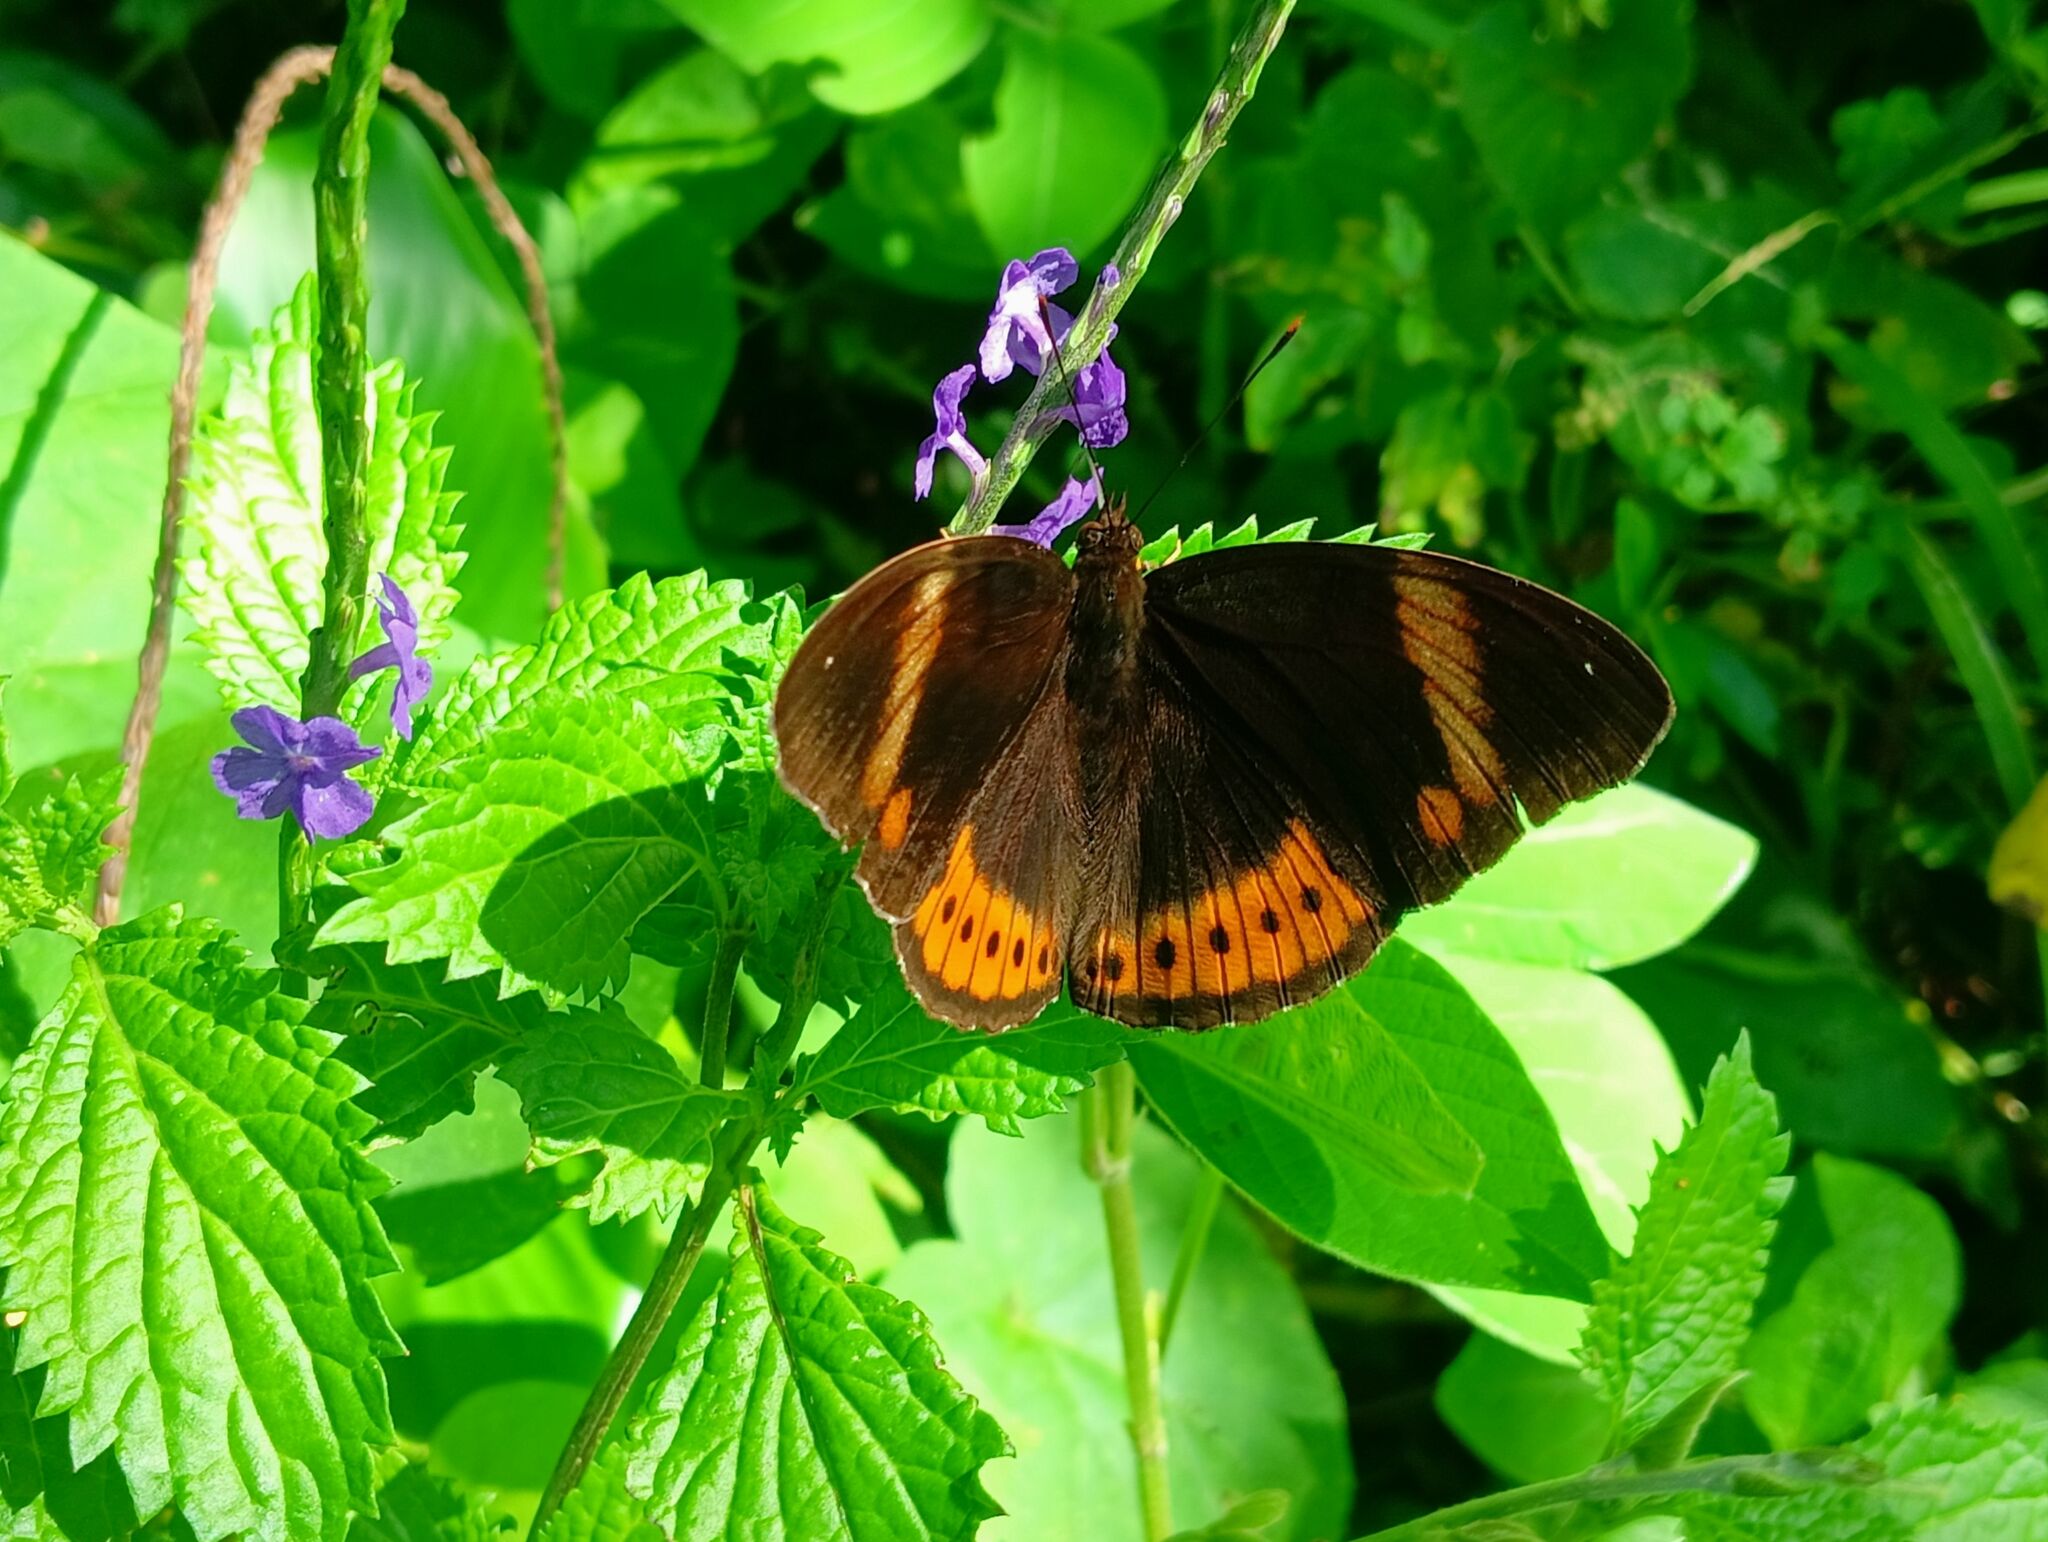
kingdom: Animalia
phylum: Arthropoda
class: Insecta
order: Lepidoptera
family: Nymphalidae
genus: Hypolimnas
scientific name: Hypolimnas octocula
